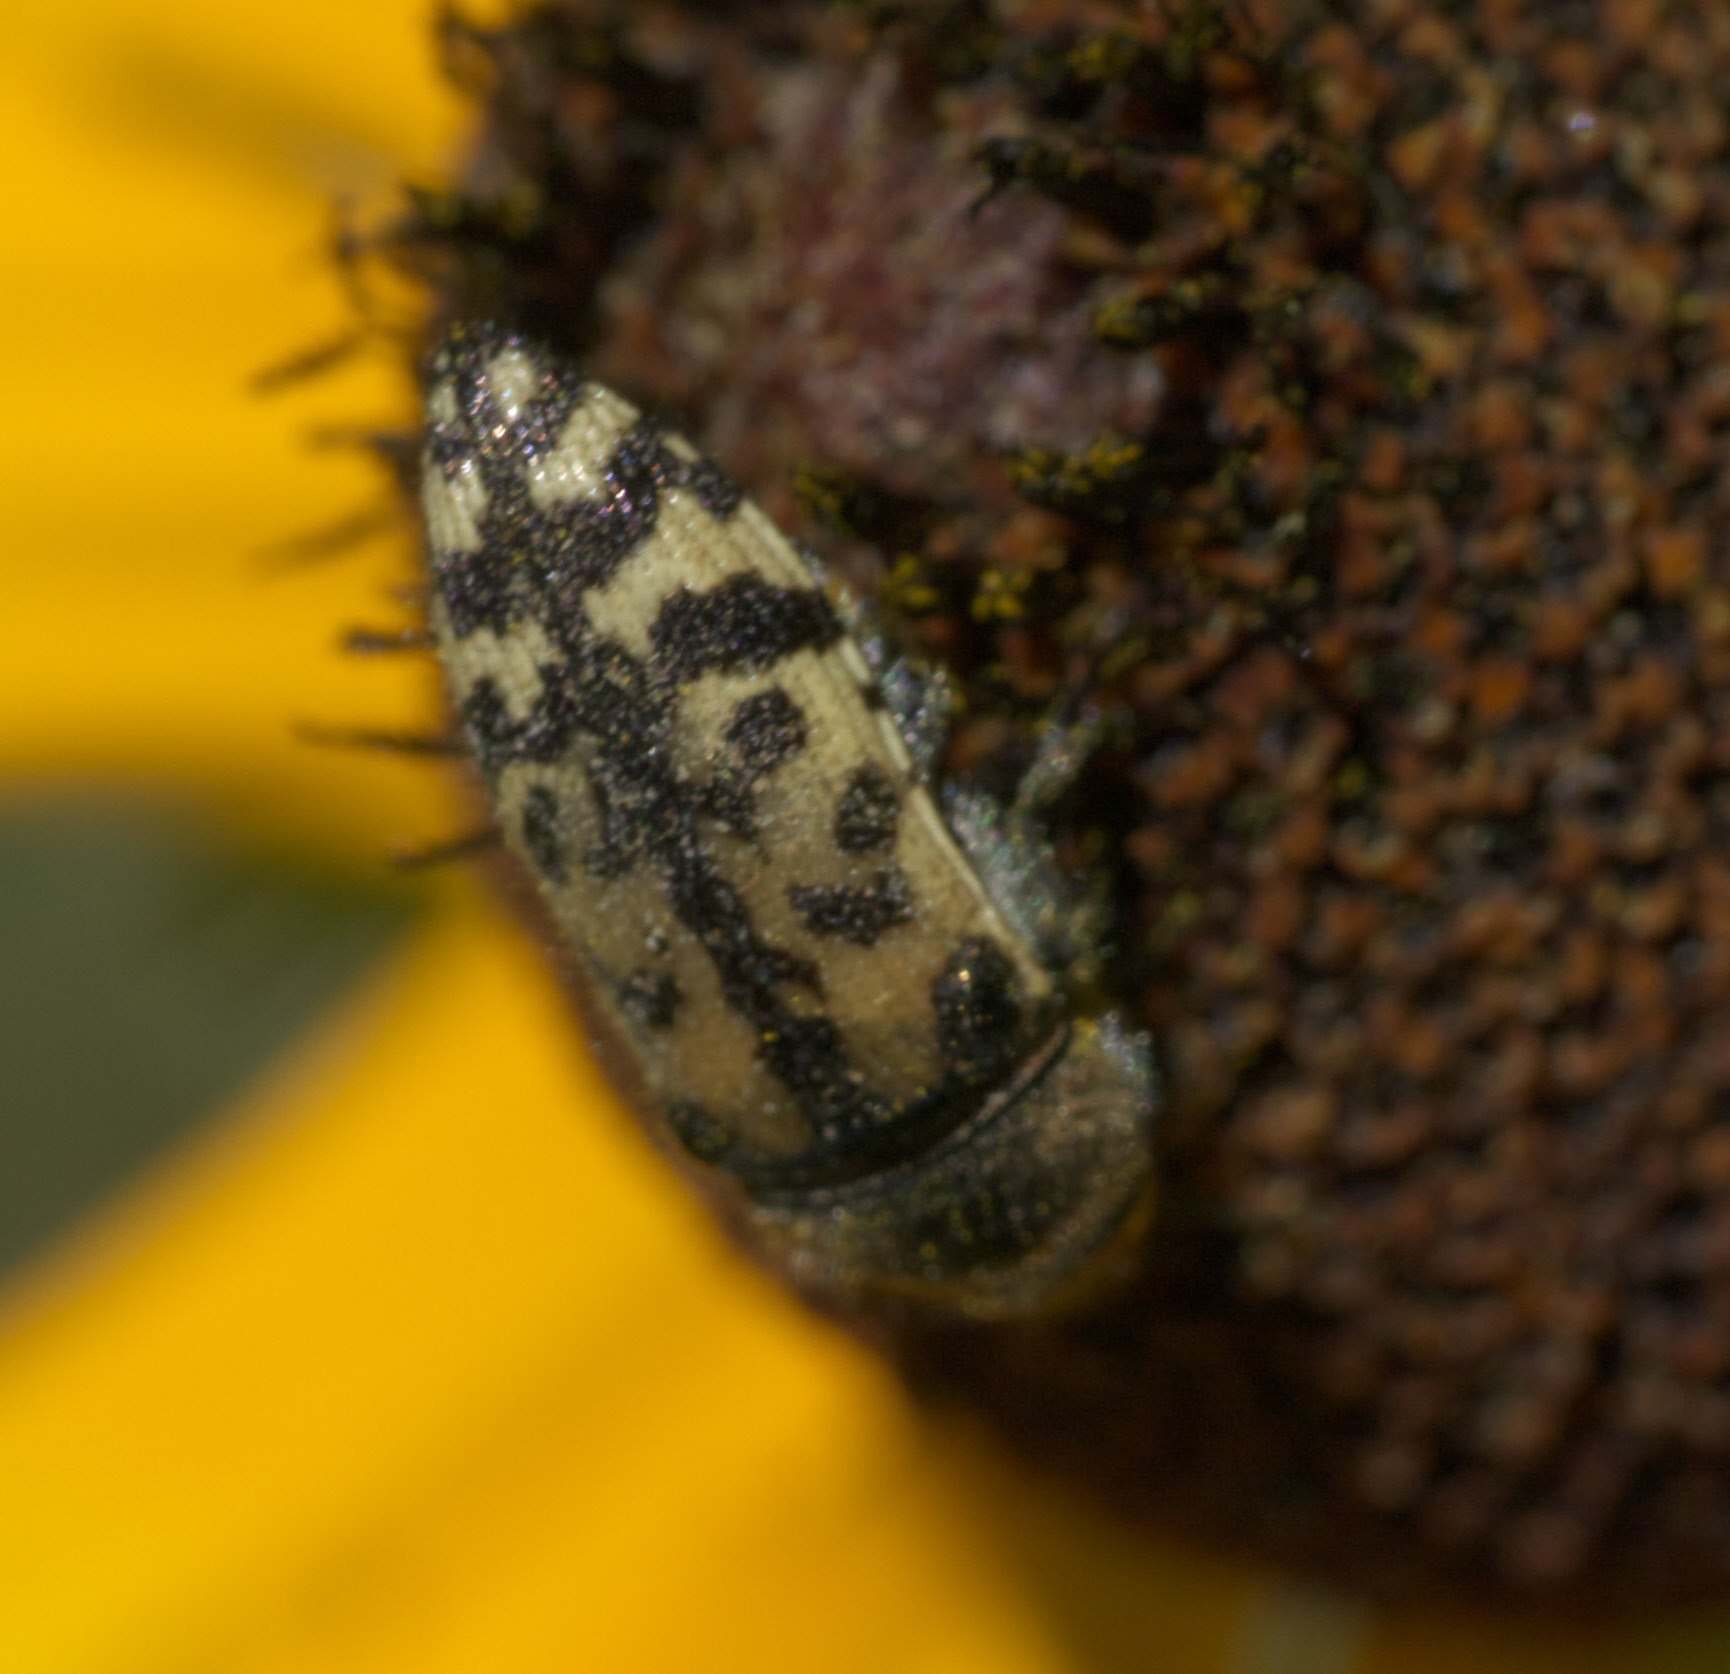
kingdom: Animalia
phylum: Arthropoda
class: Insecta
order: Coleoptera
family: Buprestidae
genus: Acmaeodera
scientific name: Acmaeodera mixta
